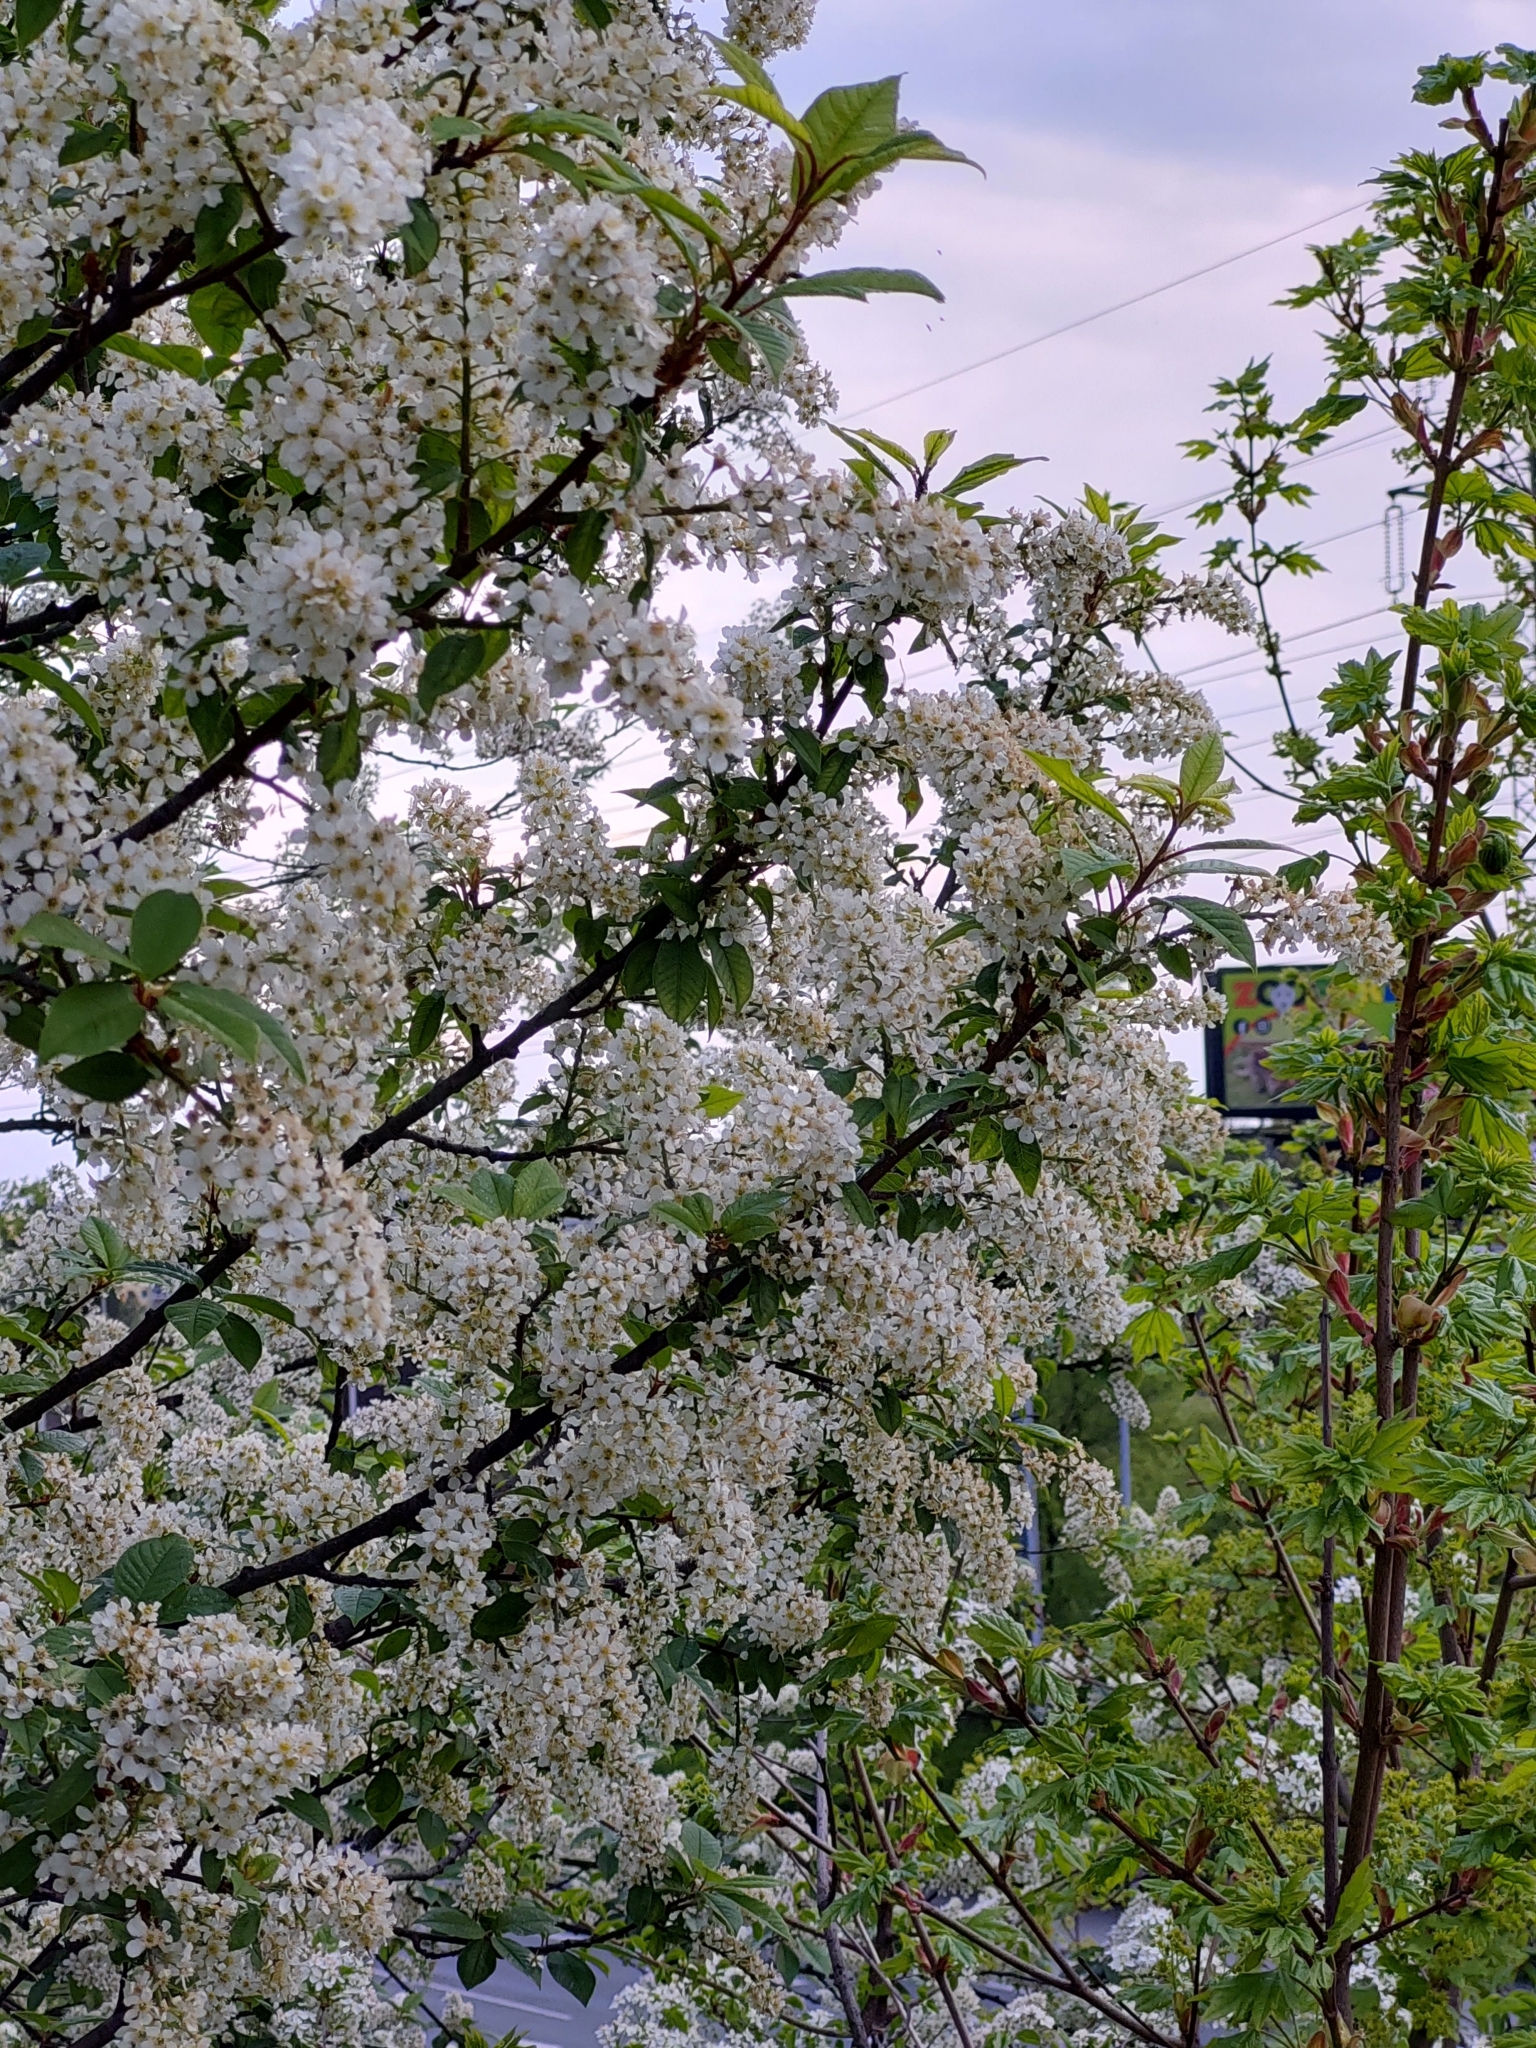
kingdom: Plantae
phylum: Tracheophyta
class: Magnoliopsida
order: Rosales
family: Rosaceae
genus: Prunus
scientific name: Prunus padus
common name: Bird cherry
